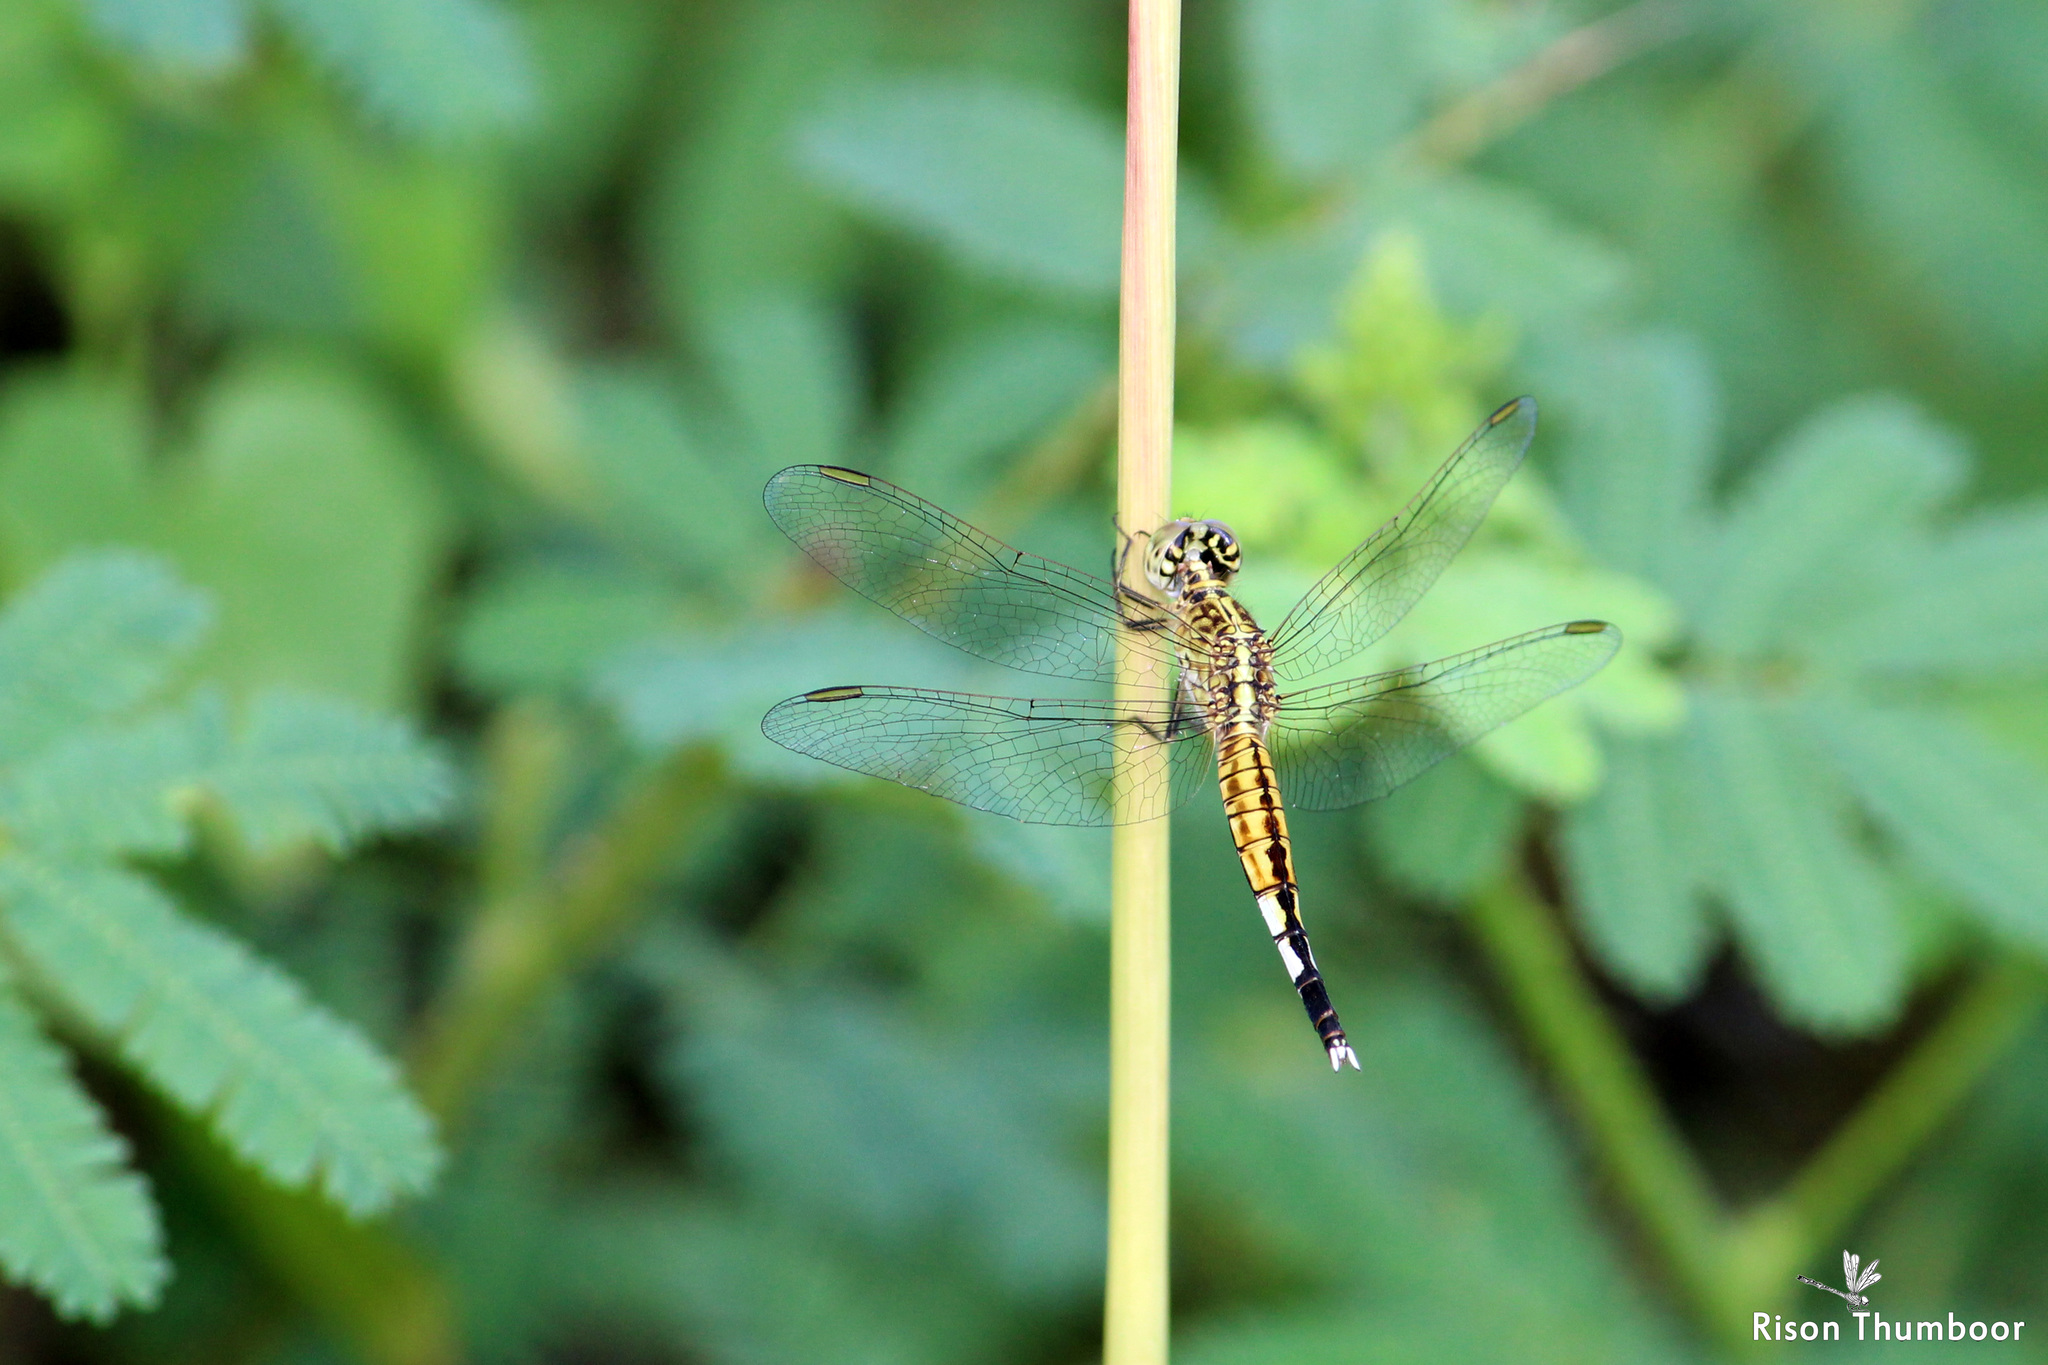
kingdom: Animalia
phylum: Arthropoda
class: Insecta
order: Odonata
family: Libellulidae
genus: Acisoma
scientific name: Acisoma panorpoides
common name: Asian pintail
